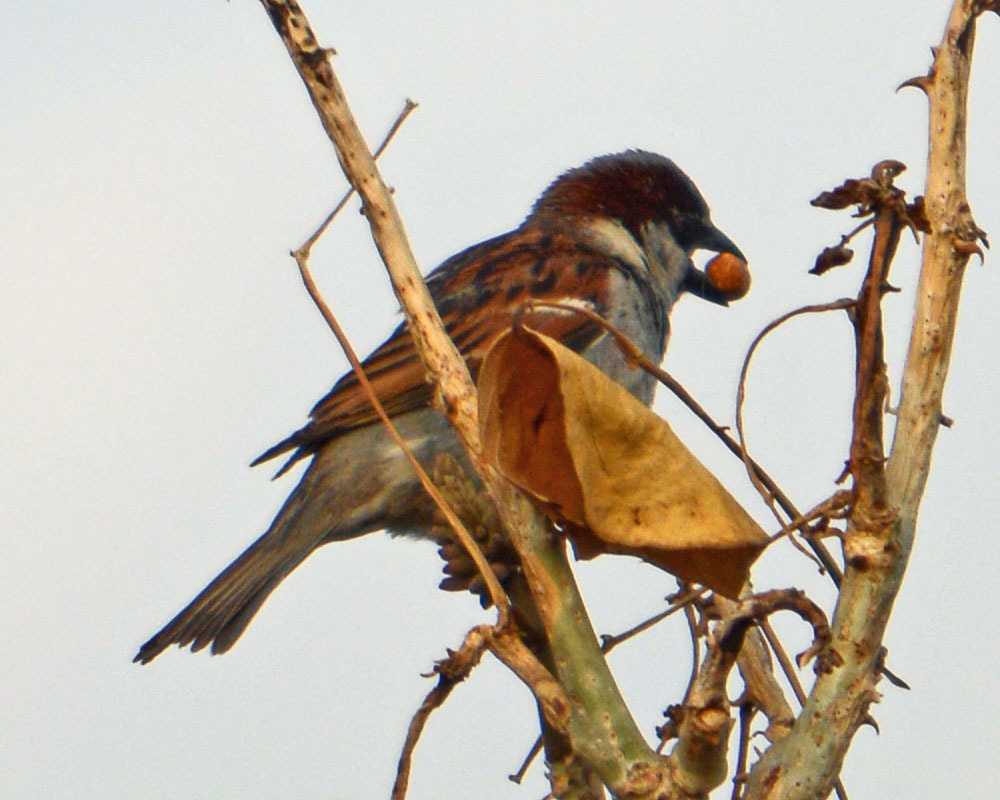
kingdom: Animalia
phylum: Chordata
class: Aves
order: Passeriformes
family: Passeridae
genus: Passer
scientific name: Passer domesticus
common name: House sparrow
